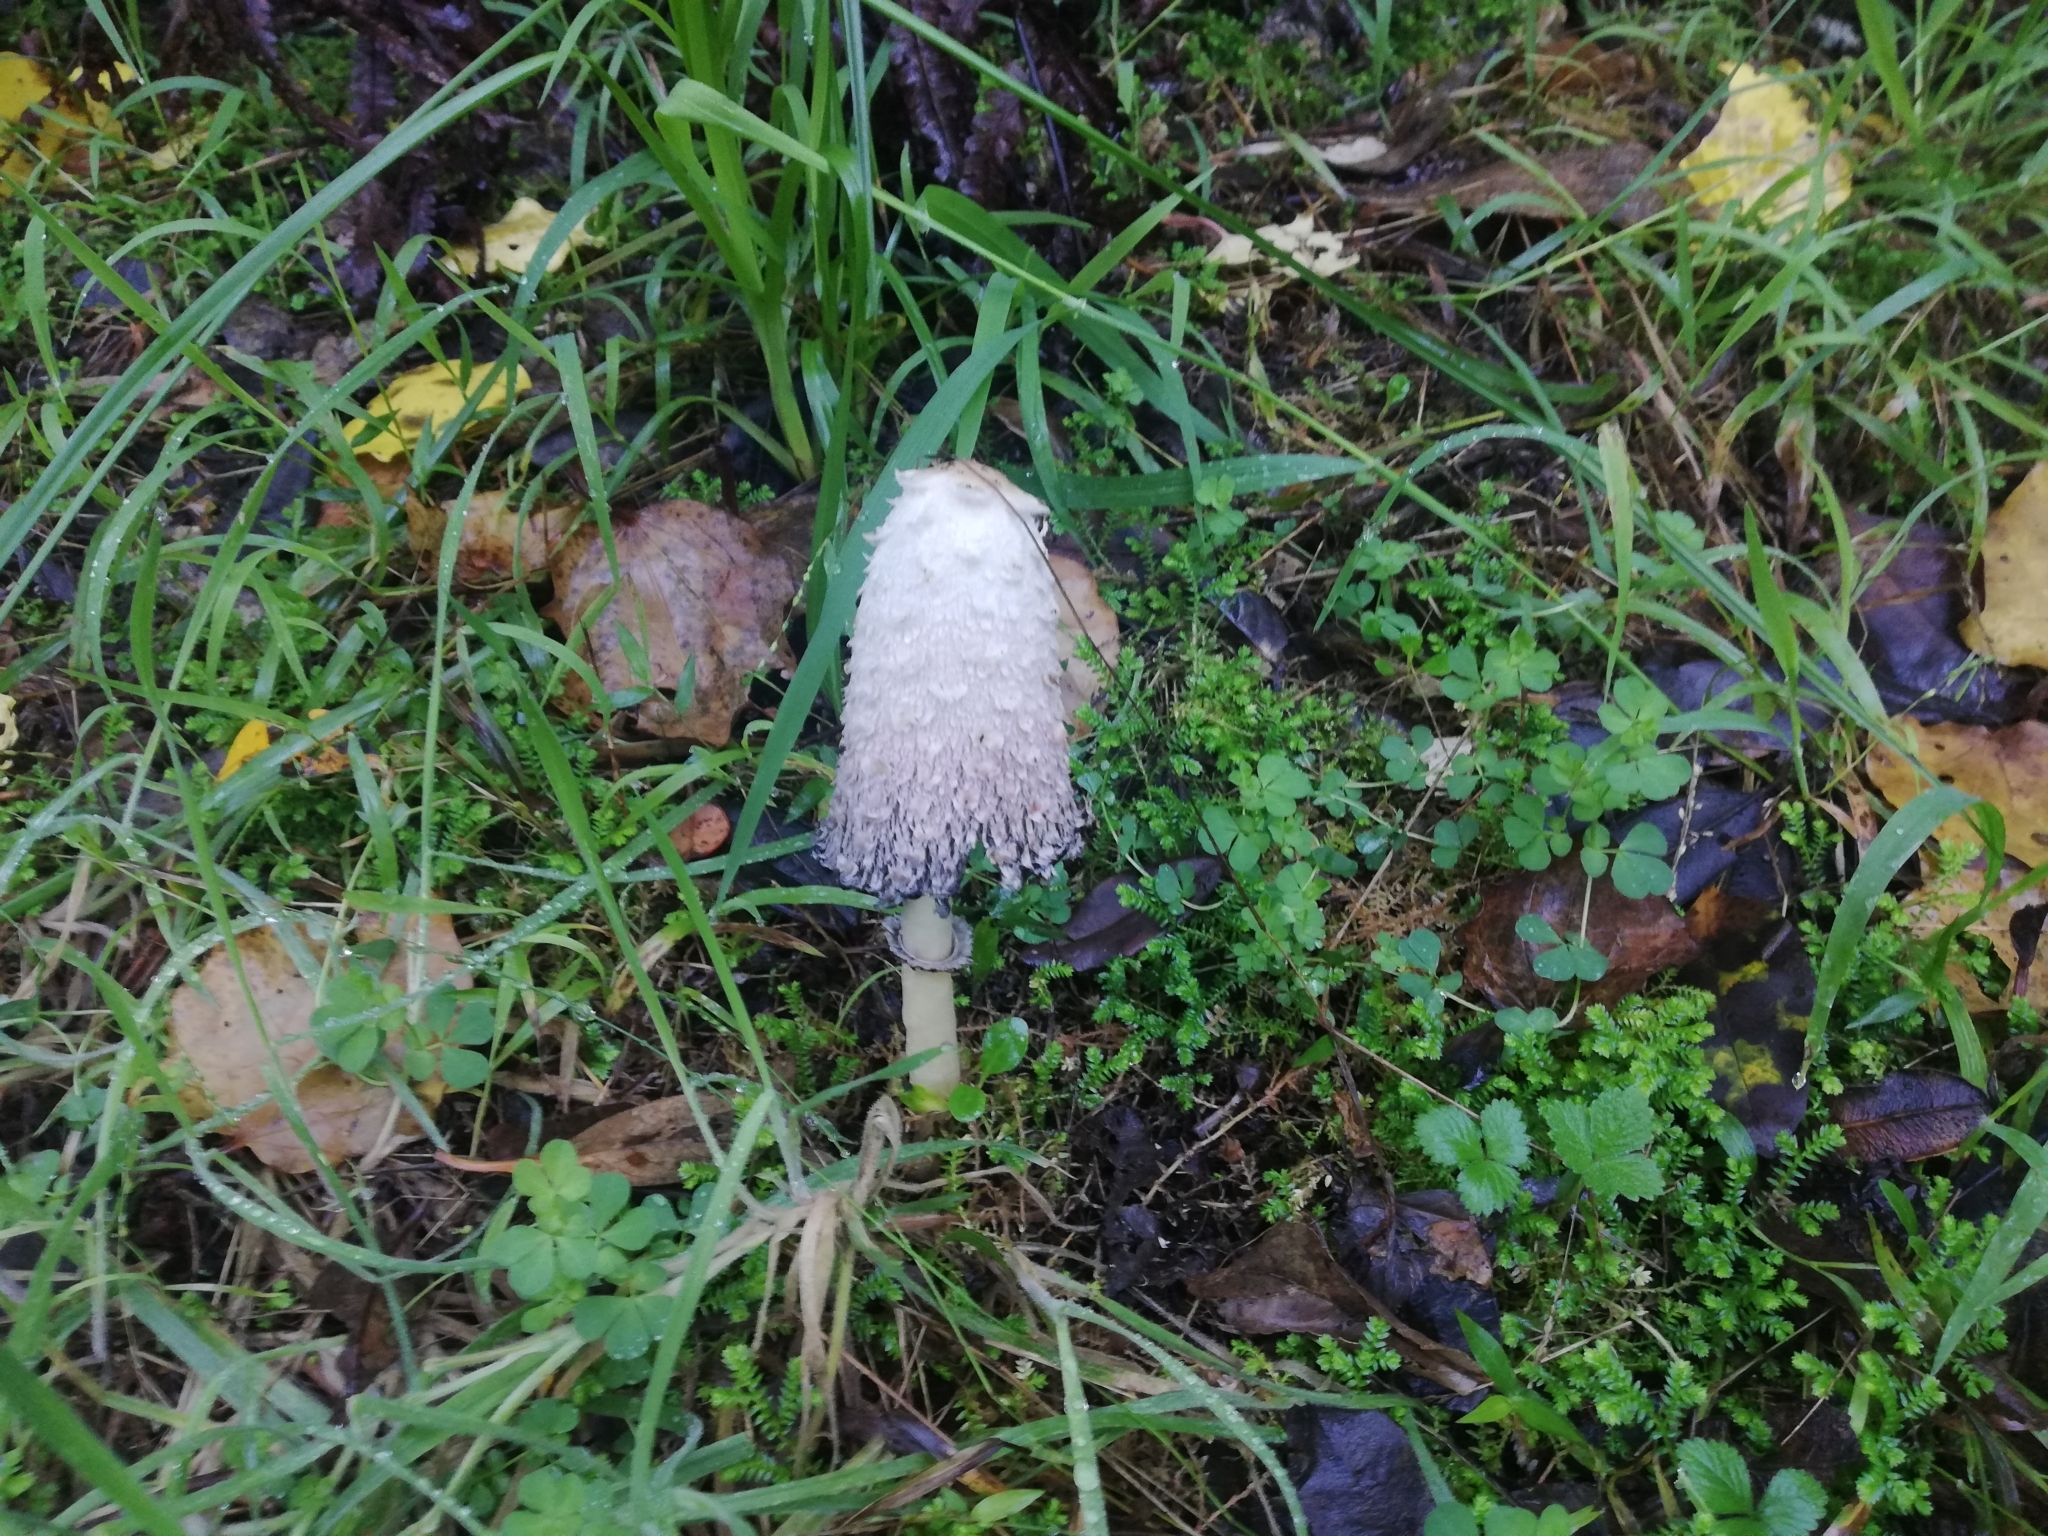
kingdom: Fungi
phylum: Basidiomycota
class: Agaricomycetes
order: Agaricales
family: Agaricaceae
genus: Coprinus
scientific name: Coprinus comatus
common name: Lawyer's wig
